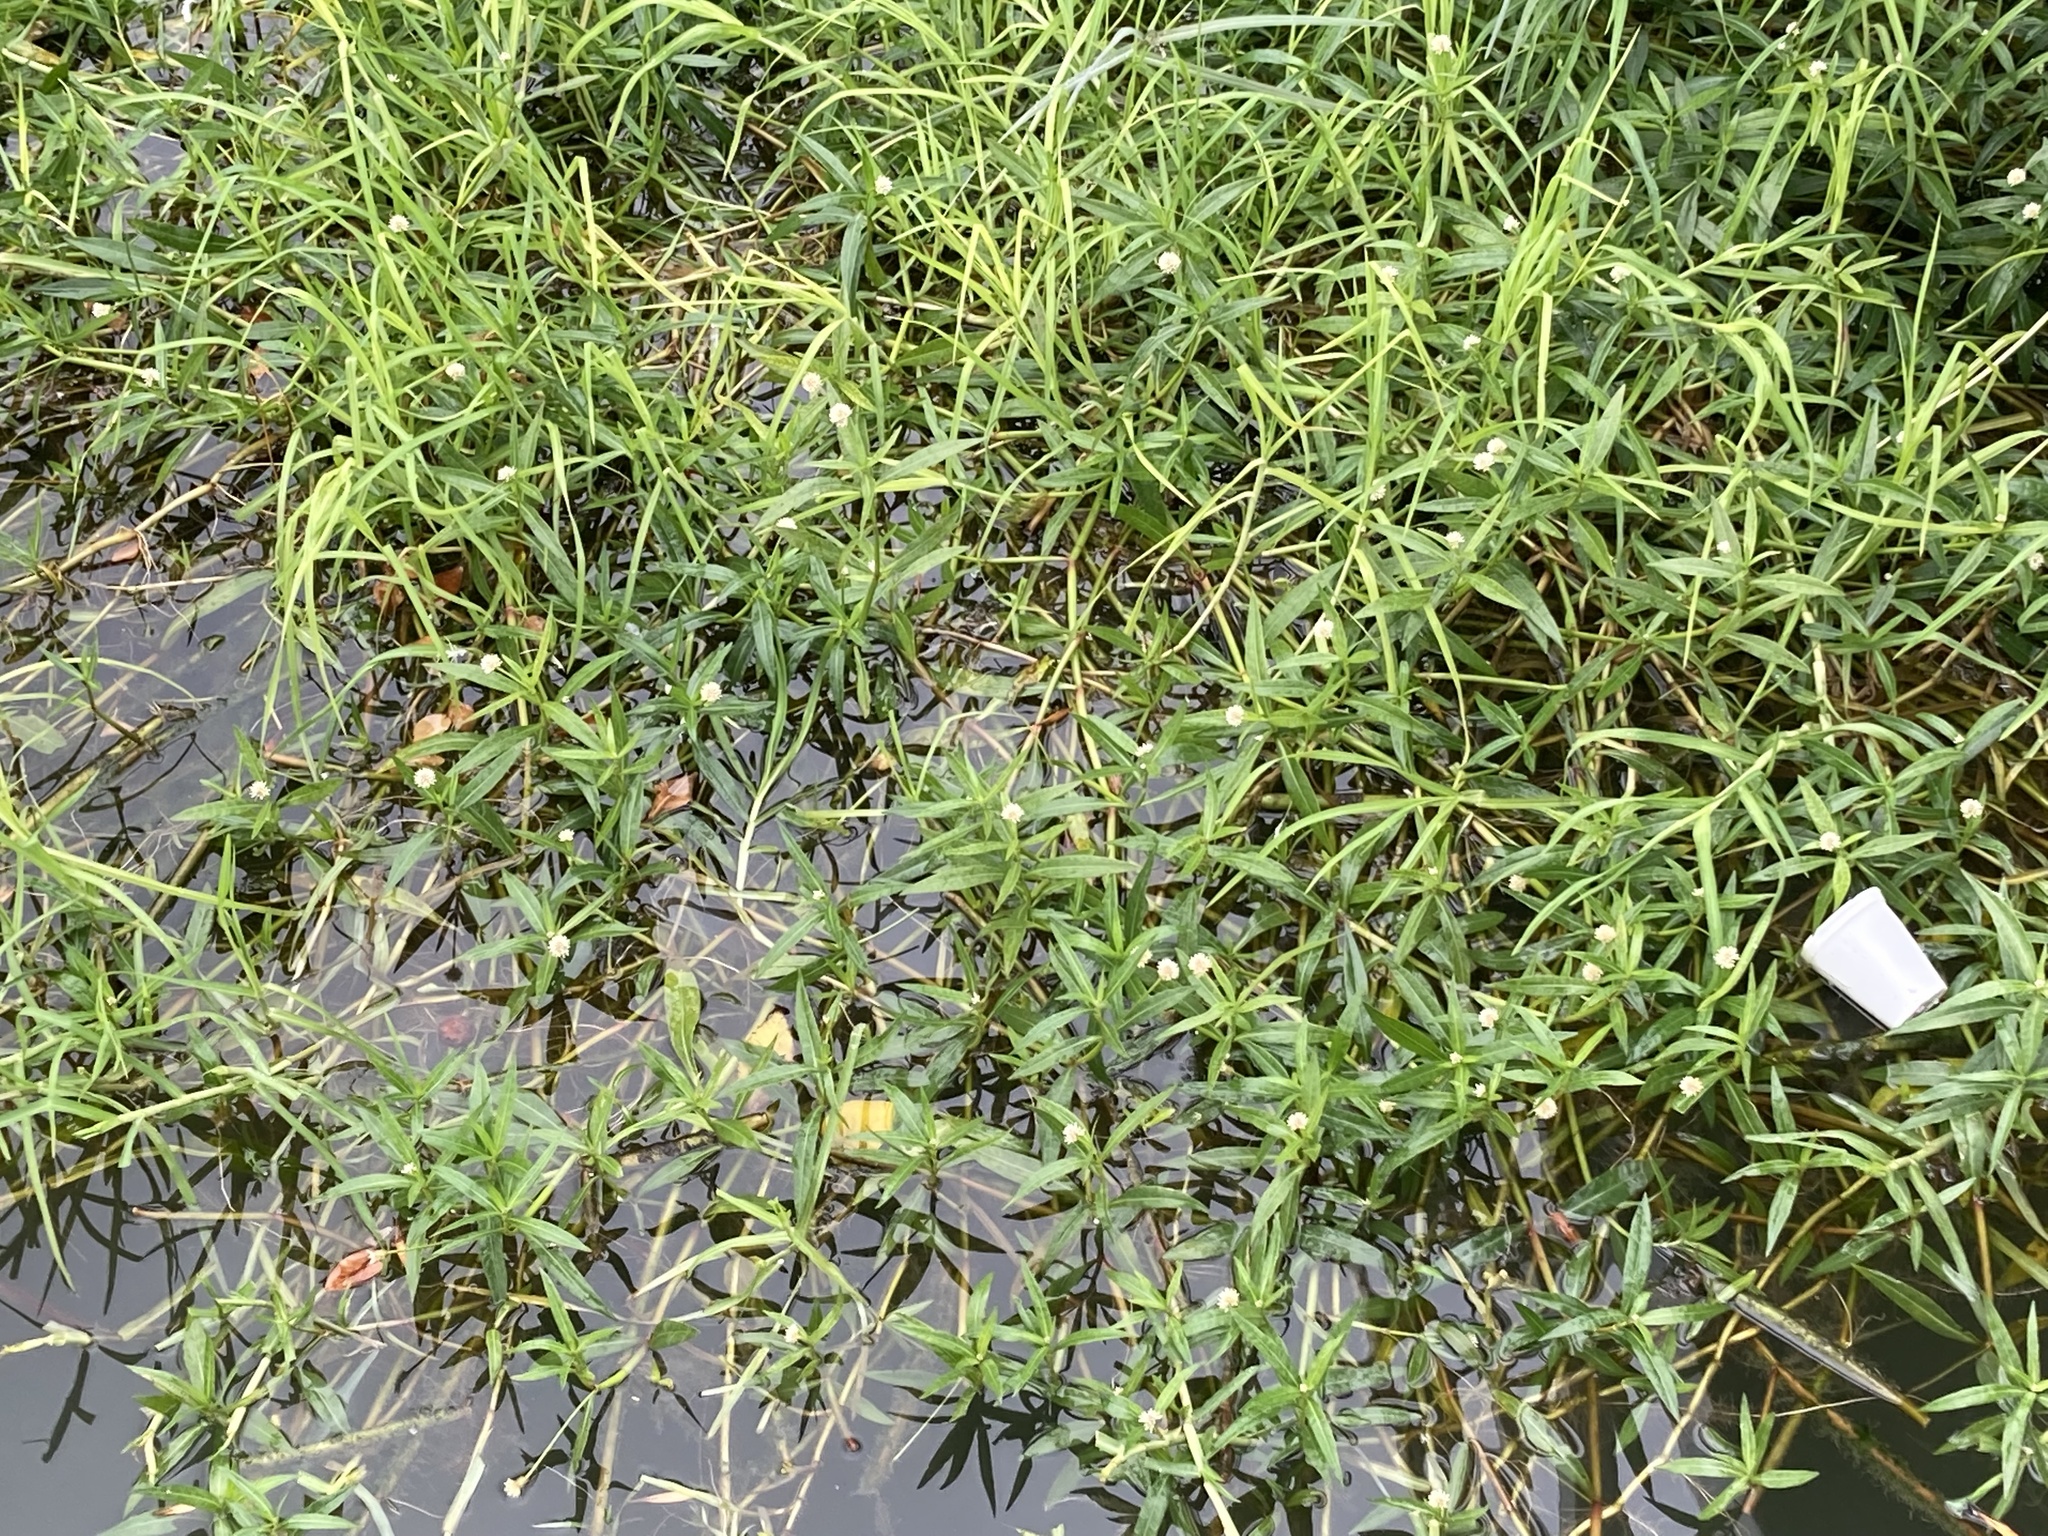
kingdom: Plantae
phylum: Tracheophyta
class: Magnoliopsida
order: Caryophyllales
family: Amaranthaceae
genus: Alternanthera
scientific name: Alternanthera philoxeroides
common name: Alligatorweed
